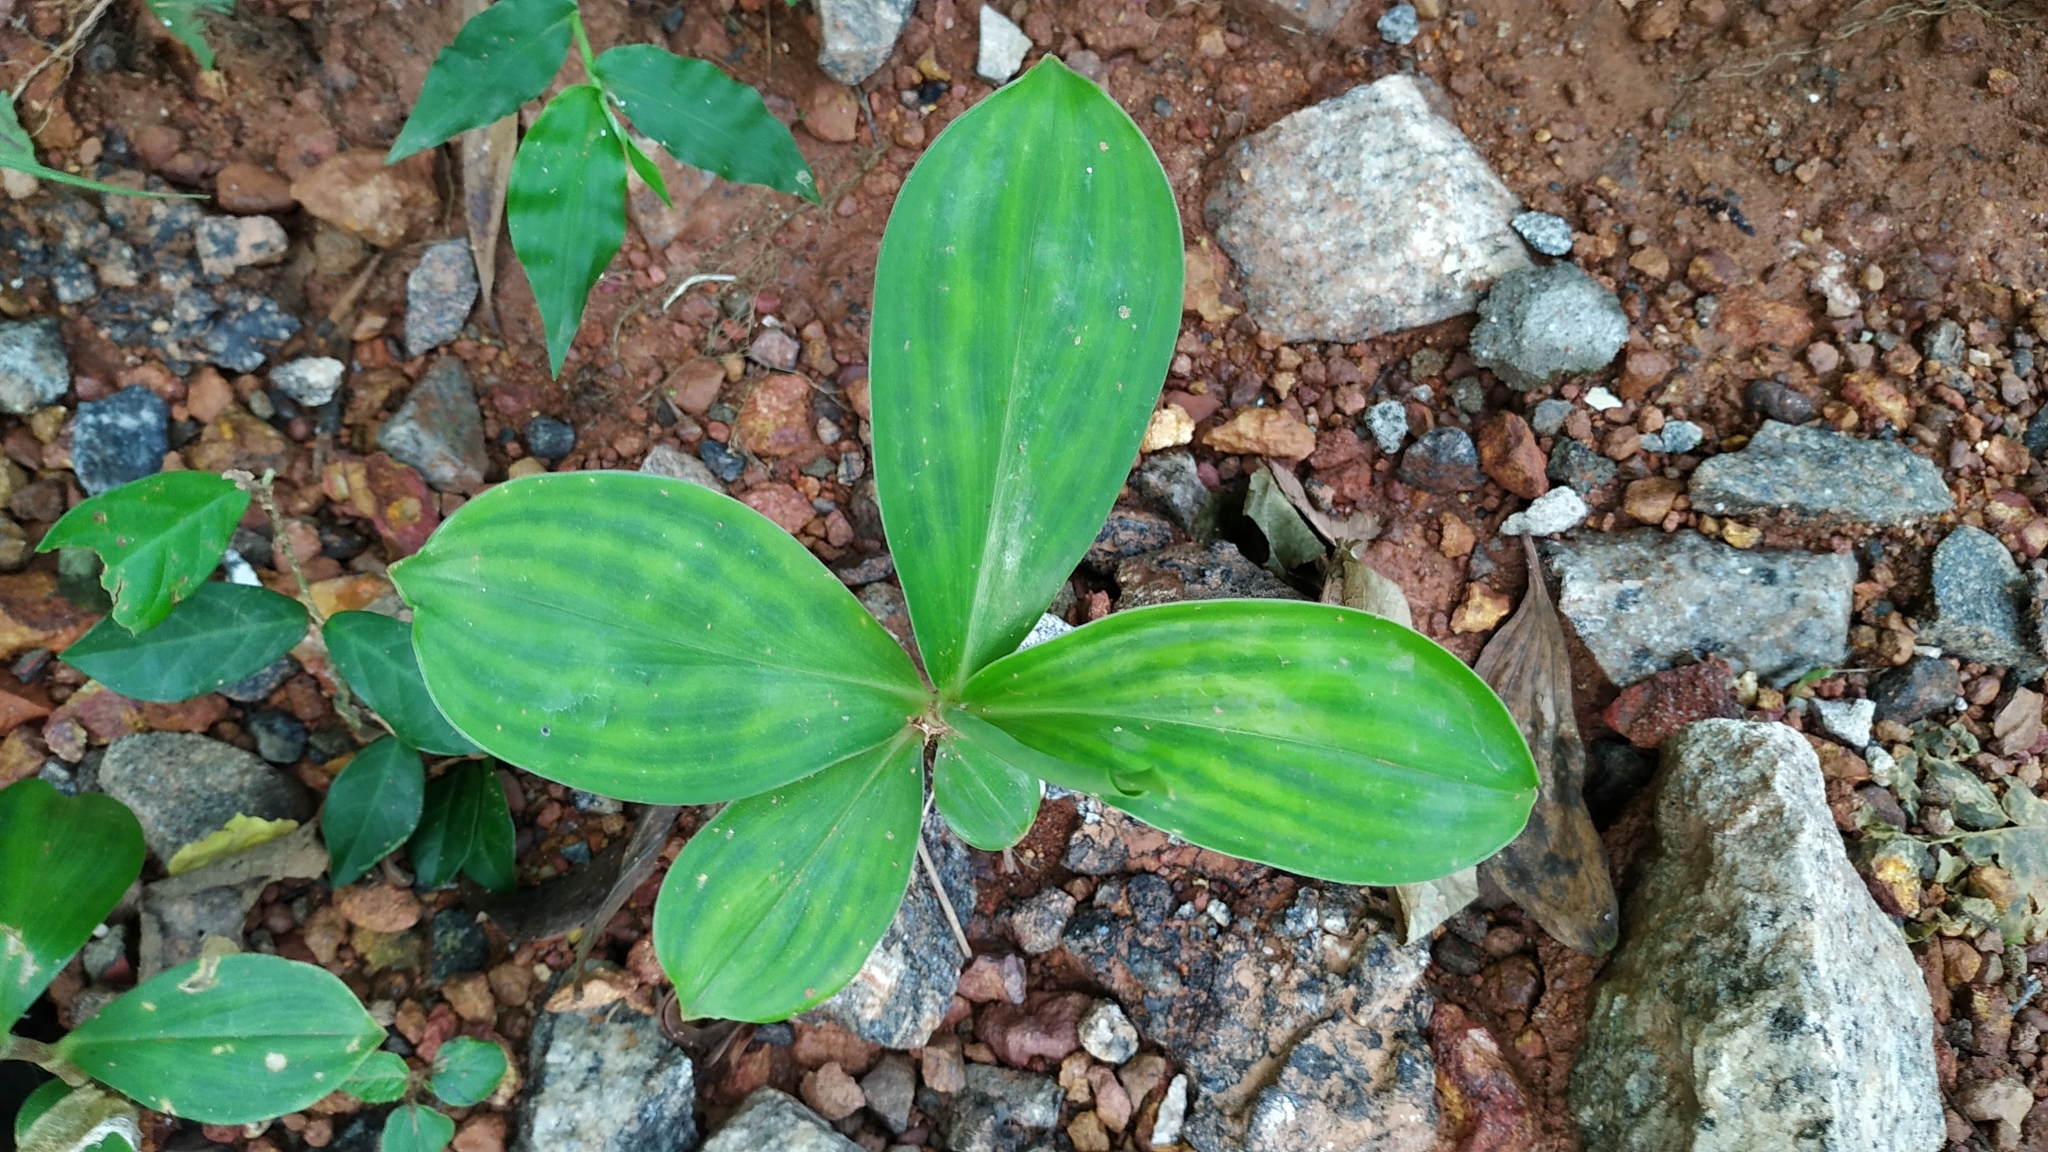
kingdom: Plantae
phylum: Tracheophyta
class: Liliopsida
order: Zingiberales
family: Costaceae
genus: Chamaecostus
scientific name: Chamaecostus cuspidatus
